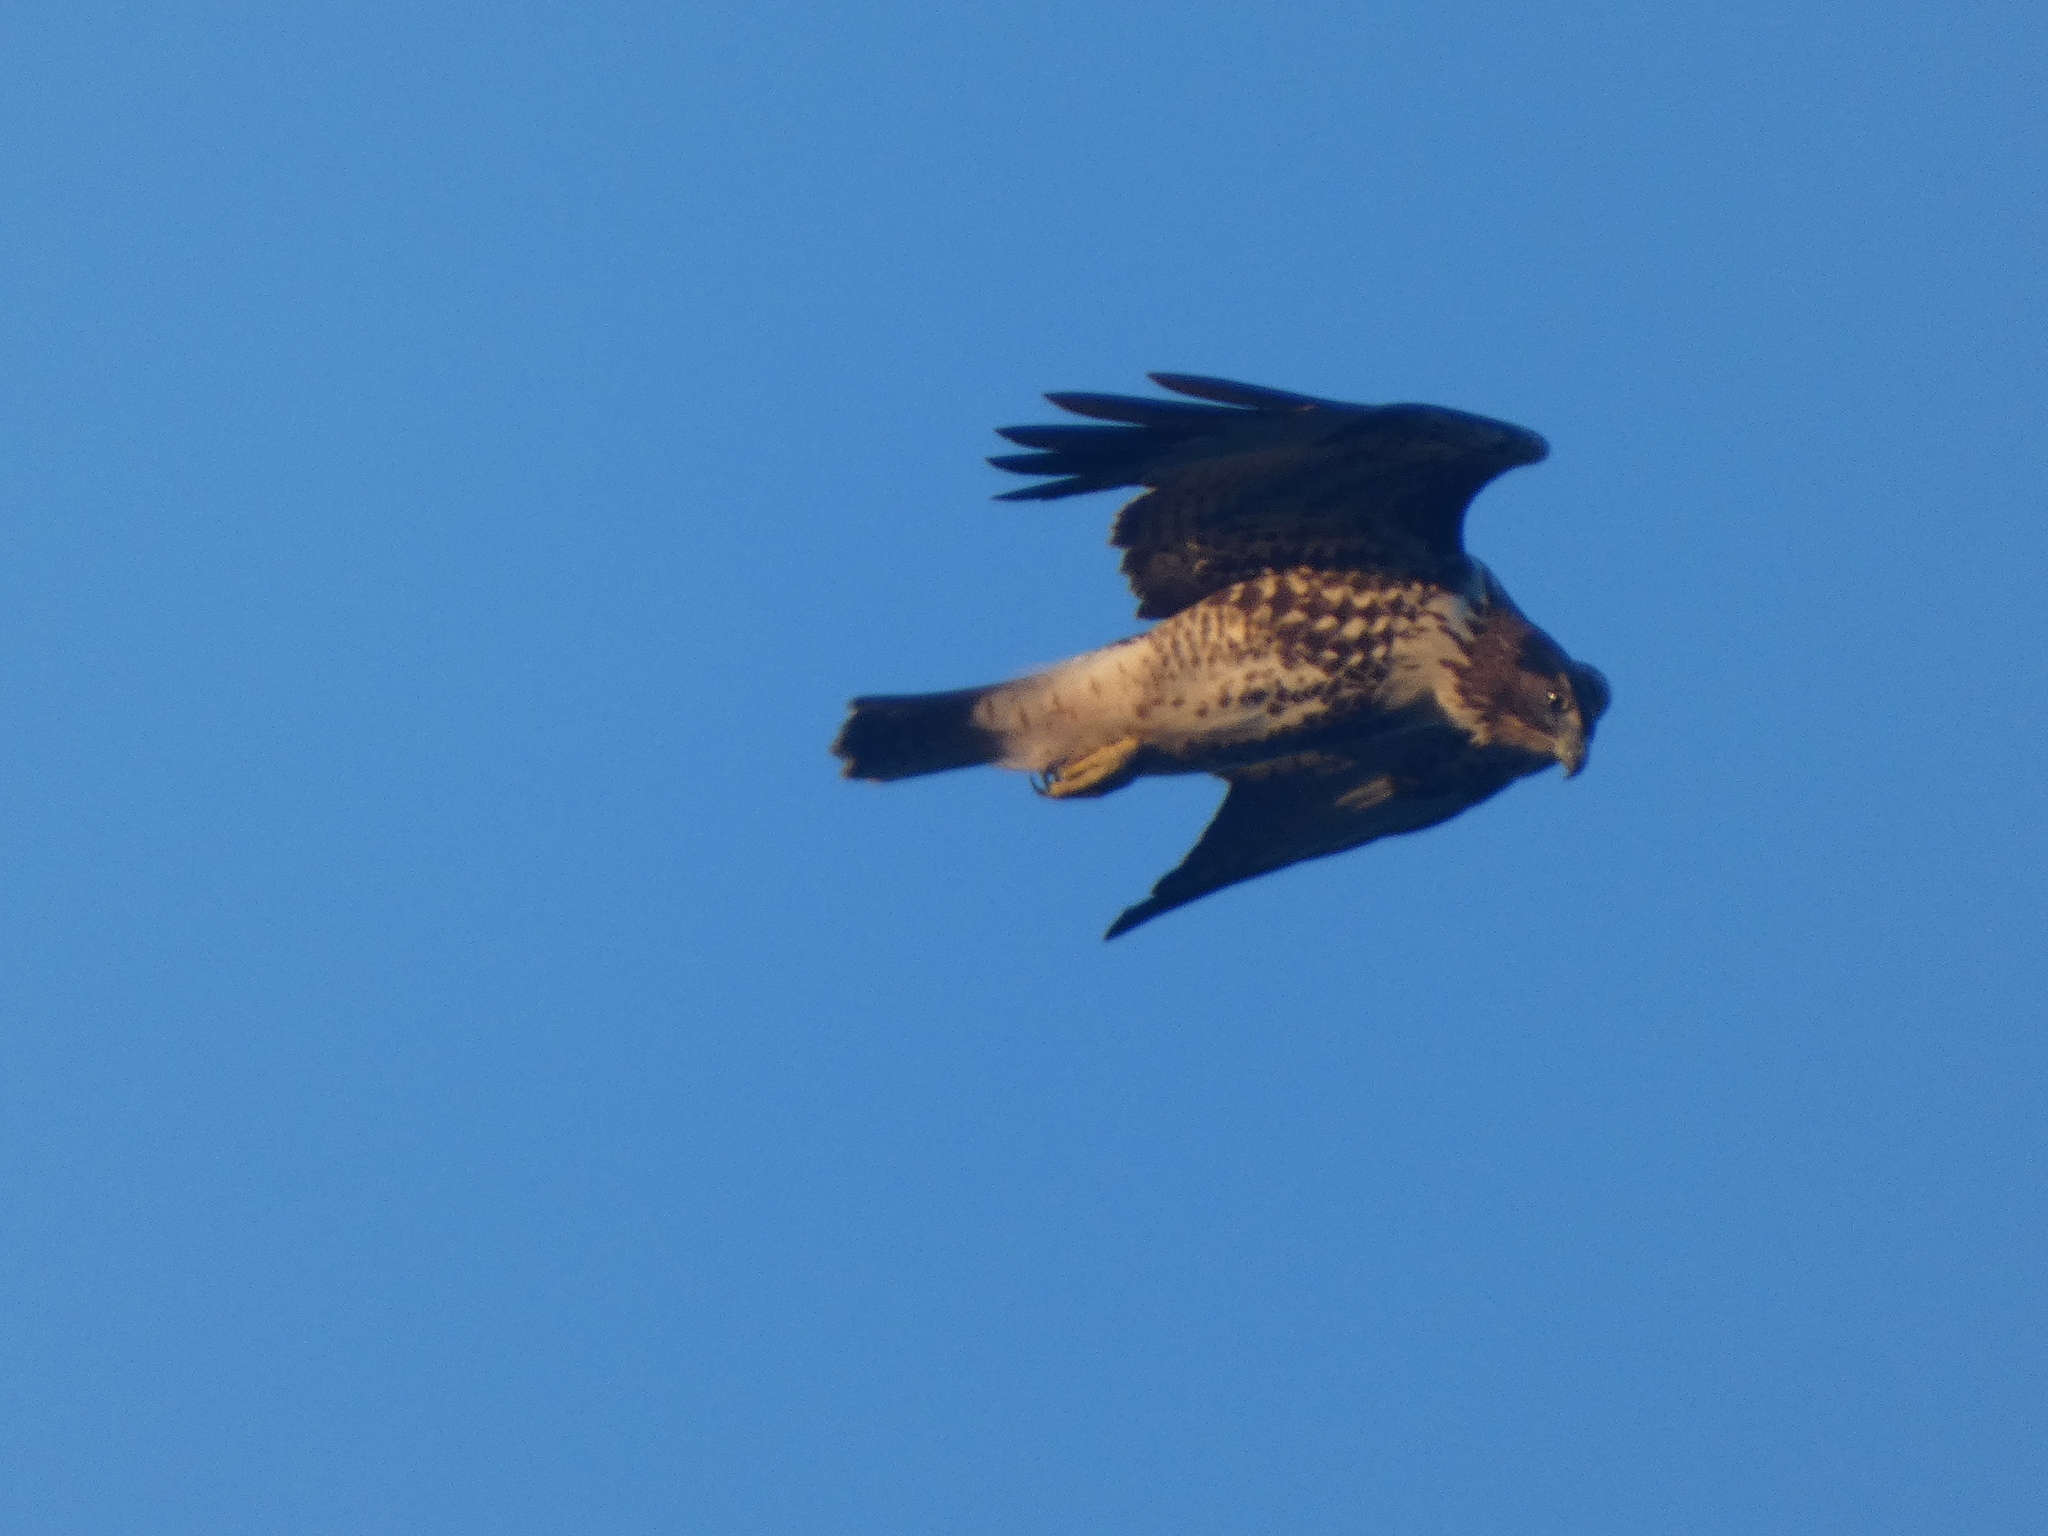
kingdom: Animalia
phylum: Chordata
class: Aves
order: Accipitriformes
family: Accipitridae
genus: Buteo
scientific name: Buteo jamaicensis
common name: Red-tailed hawk
